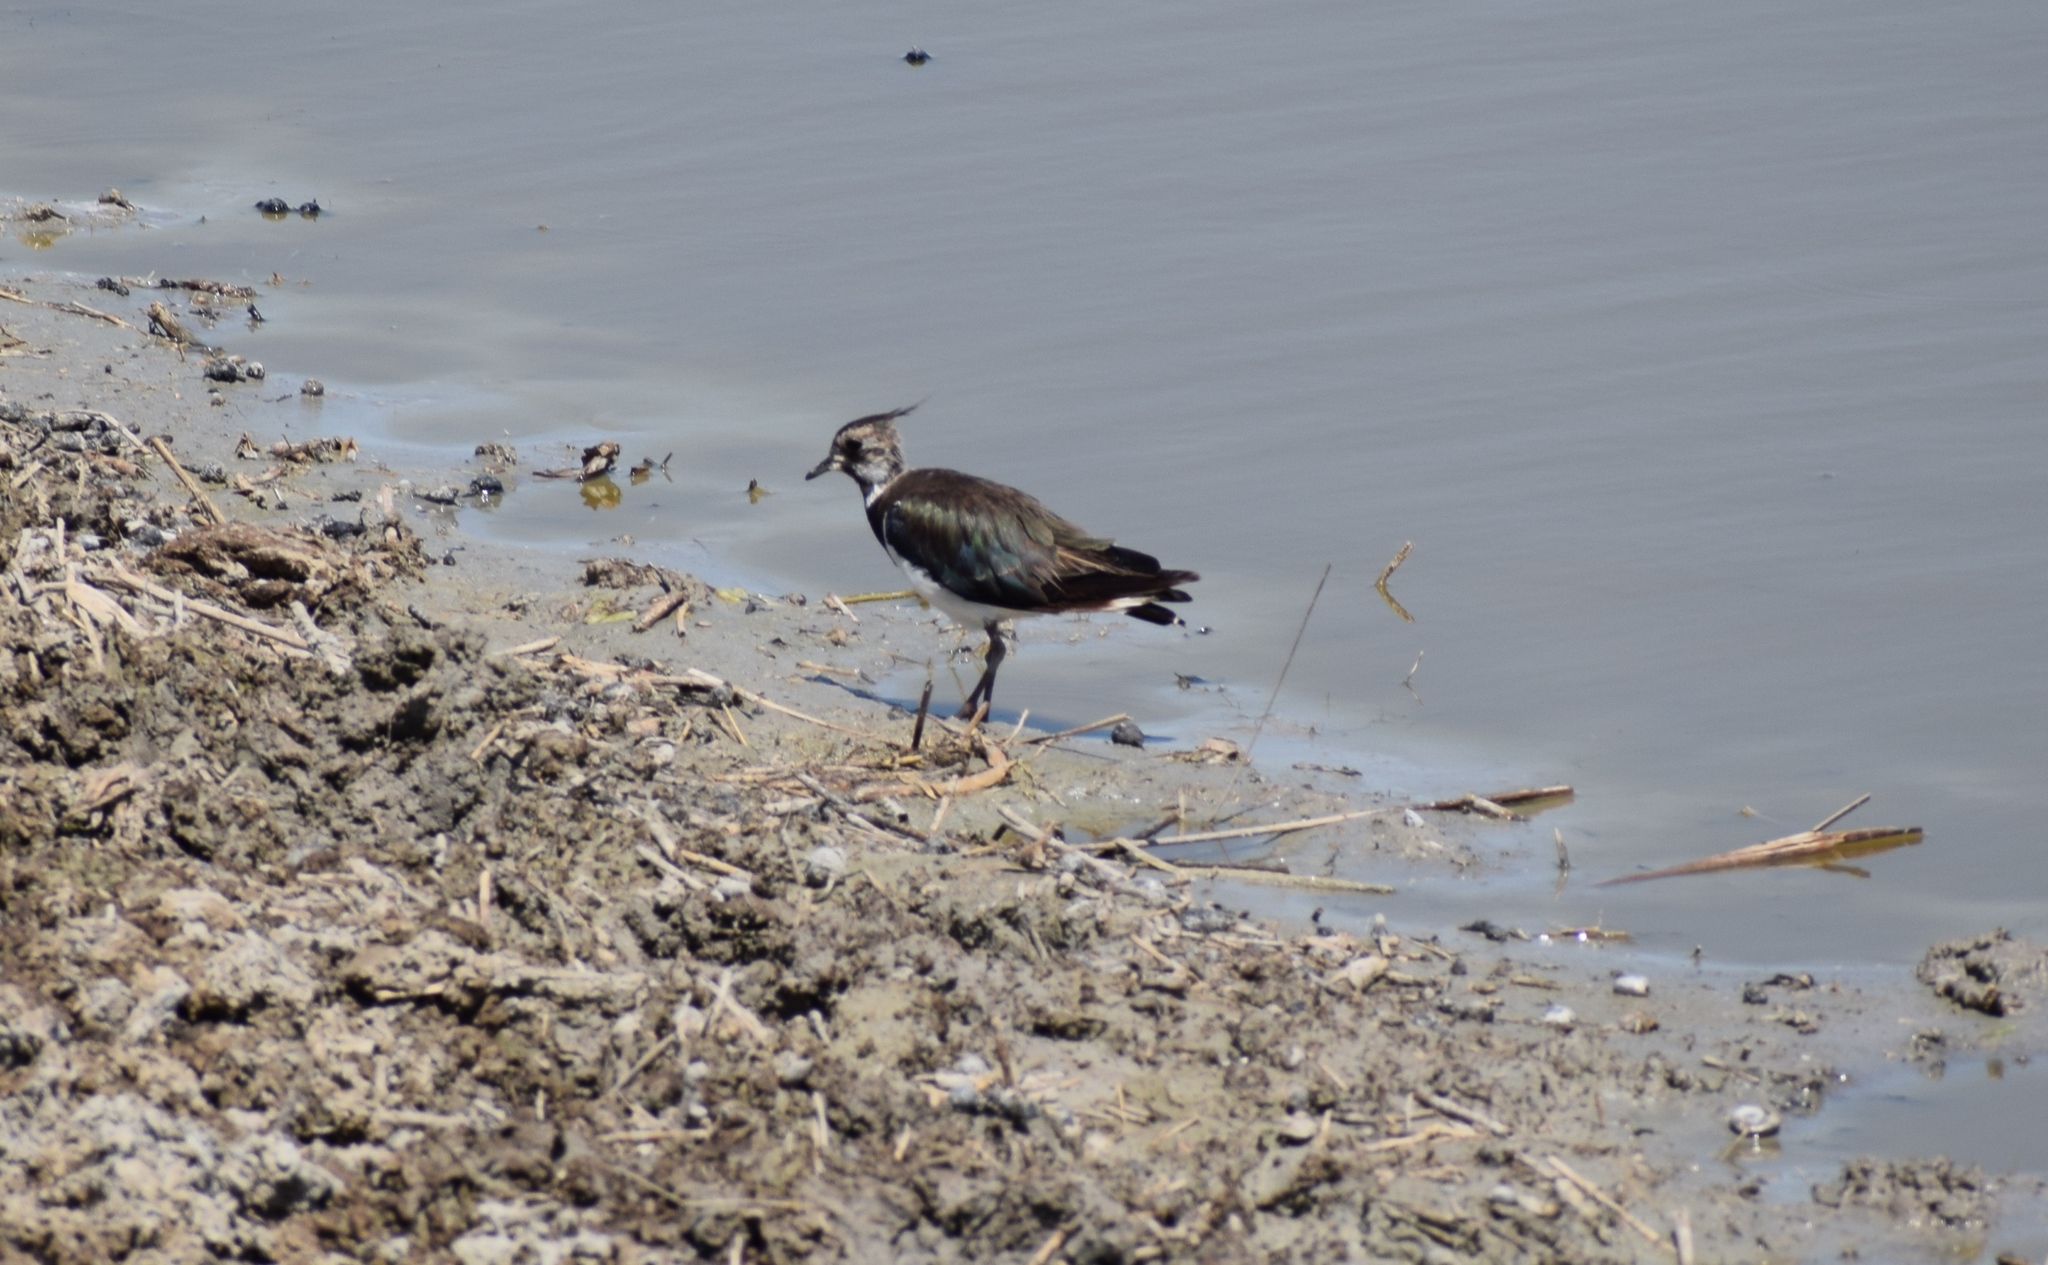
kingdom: Animalia
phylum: Chordata
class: Aves
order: Charadriiformes
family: Charadriidae
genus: Vanellus
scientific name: Vanellus vanellus
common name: Northern lapwing
